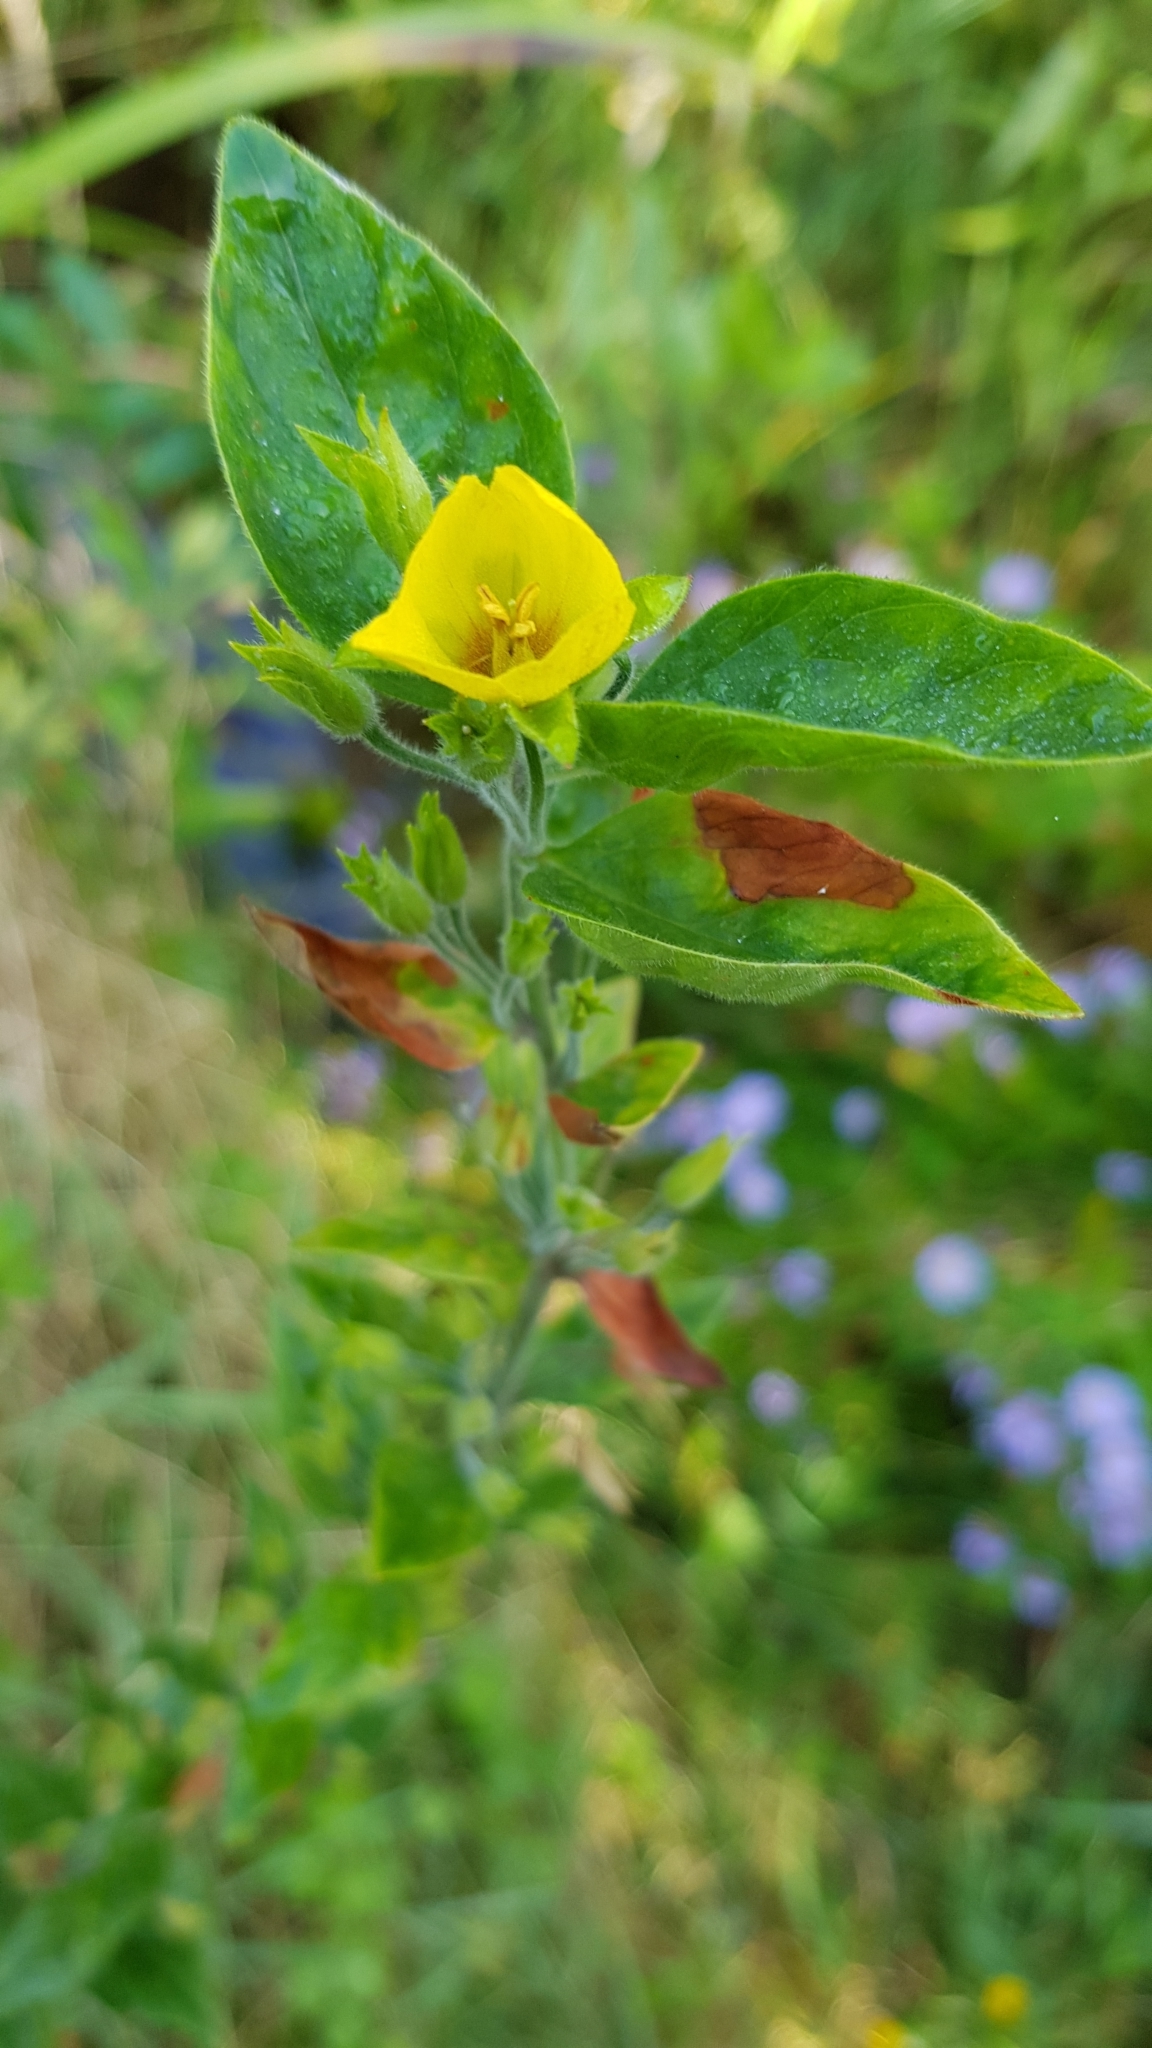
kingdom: Plantae
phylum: Tracheophyta
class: Magnoliopsida
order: Ericales
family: Primulaceae
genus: Lysimachia
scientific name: Lysimachia punctata
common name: Dotted loosestrife
